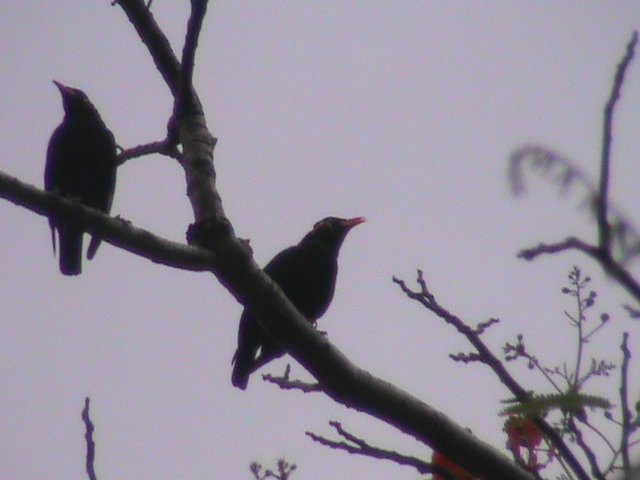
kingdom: Animalia
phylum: Chordata
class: Aves
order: Passeriformes
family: Sturnidae
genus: Gracula
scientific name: Gracula indica
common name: Southern hill myna
